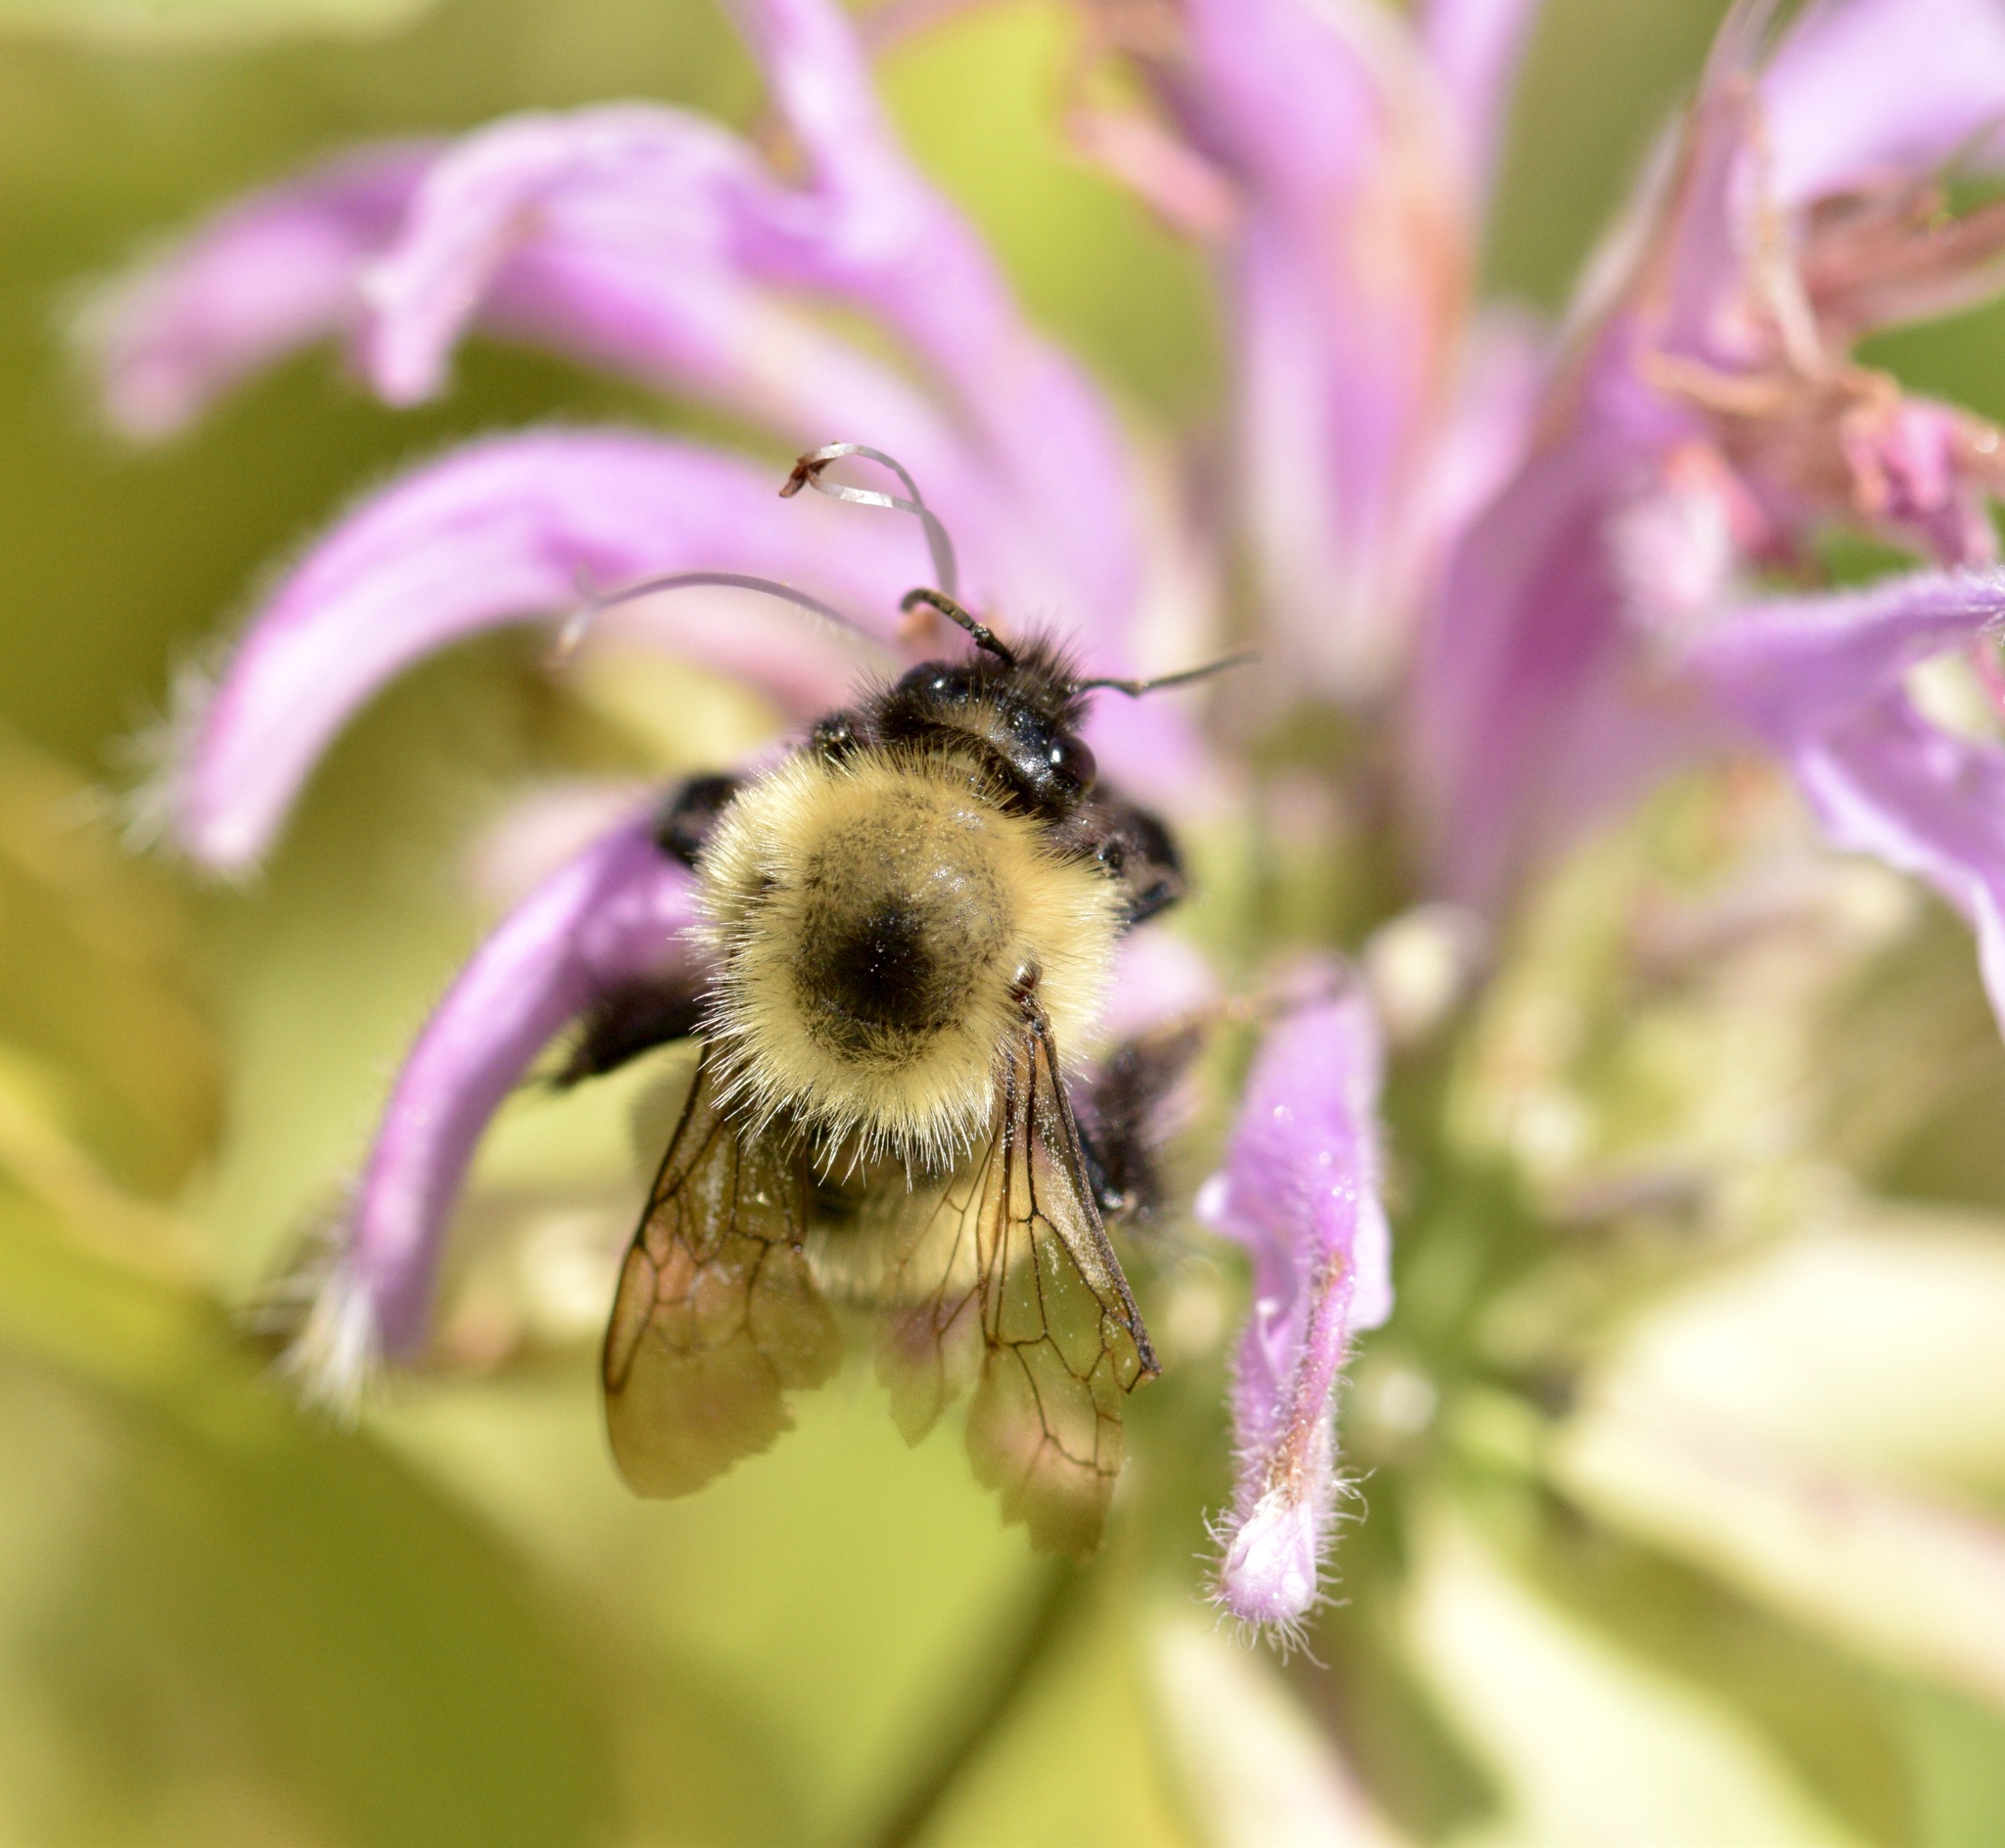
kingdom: Animalia
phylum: Arthropoda
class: Insecta
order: Hymenoptera
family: Apidae
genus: Pyrobombus
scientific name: Pyrobombus
